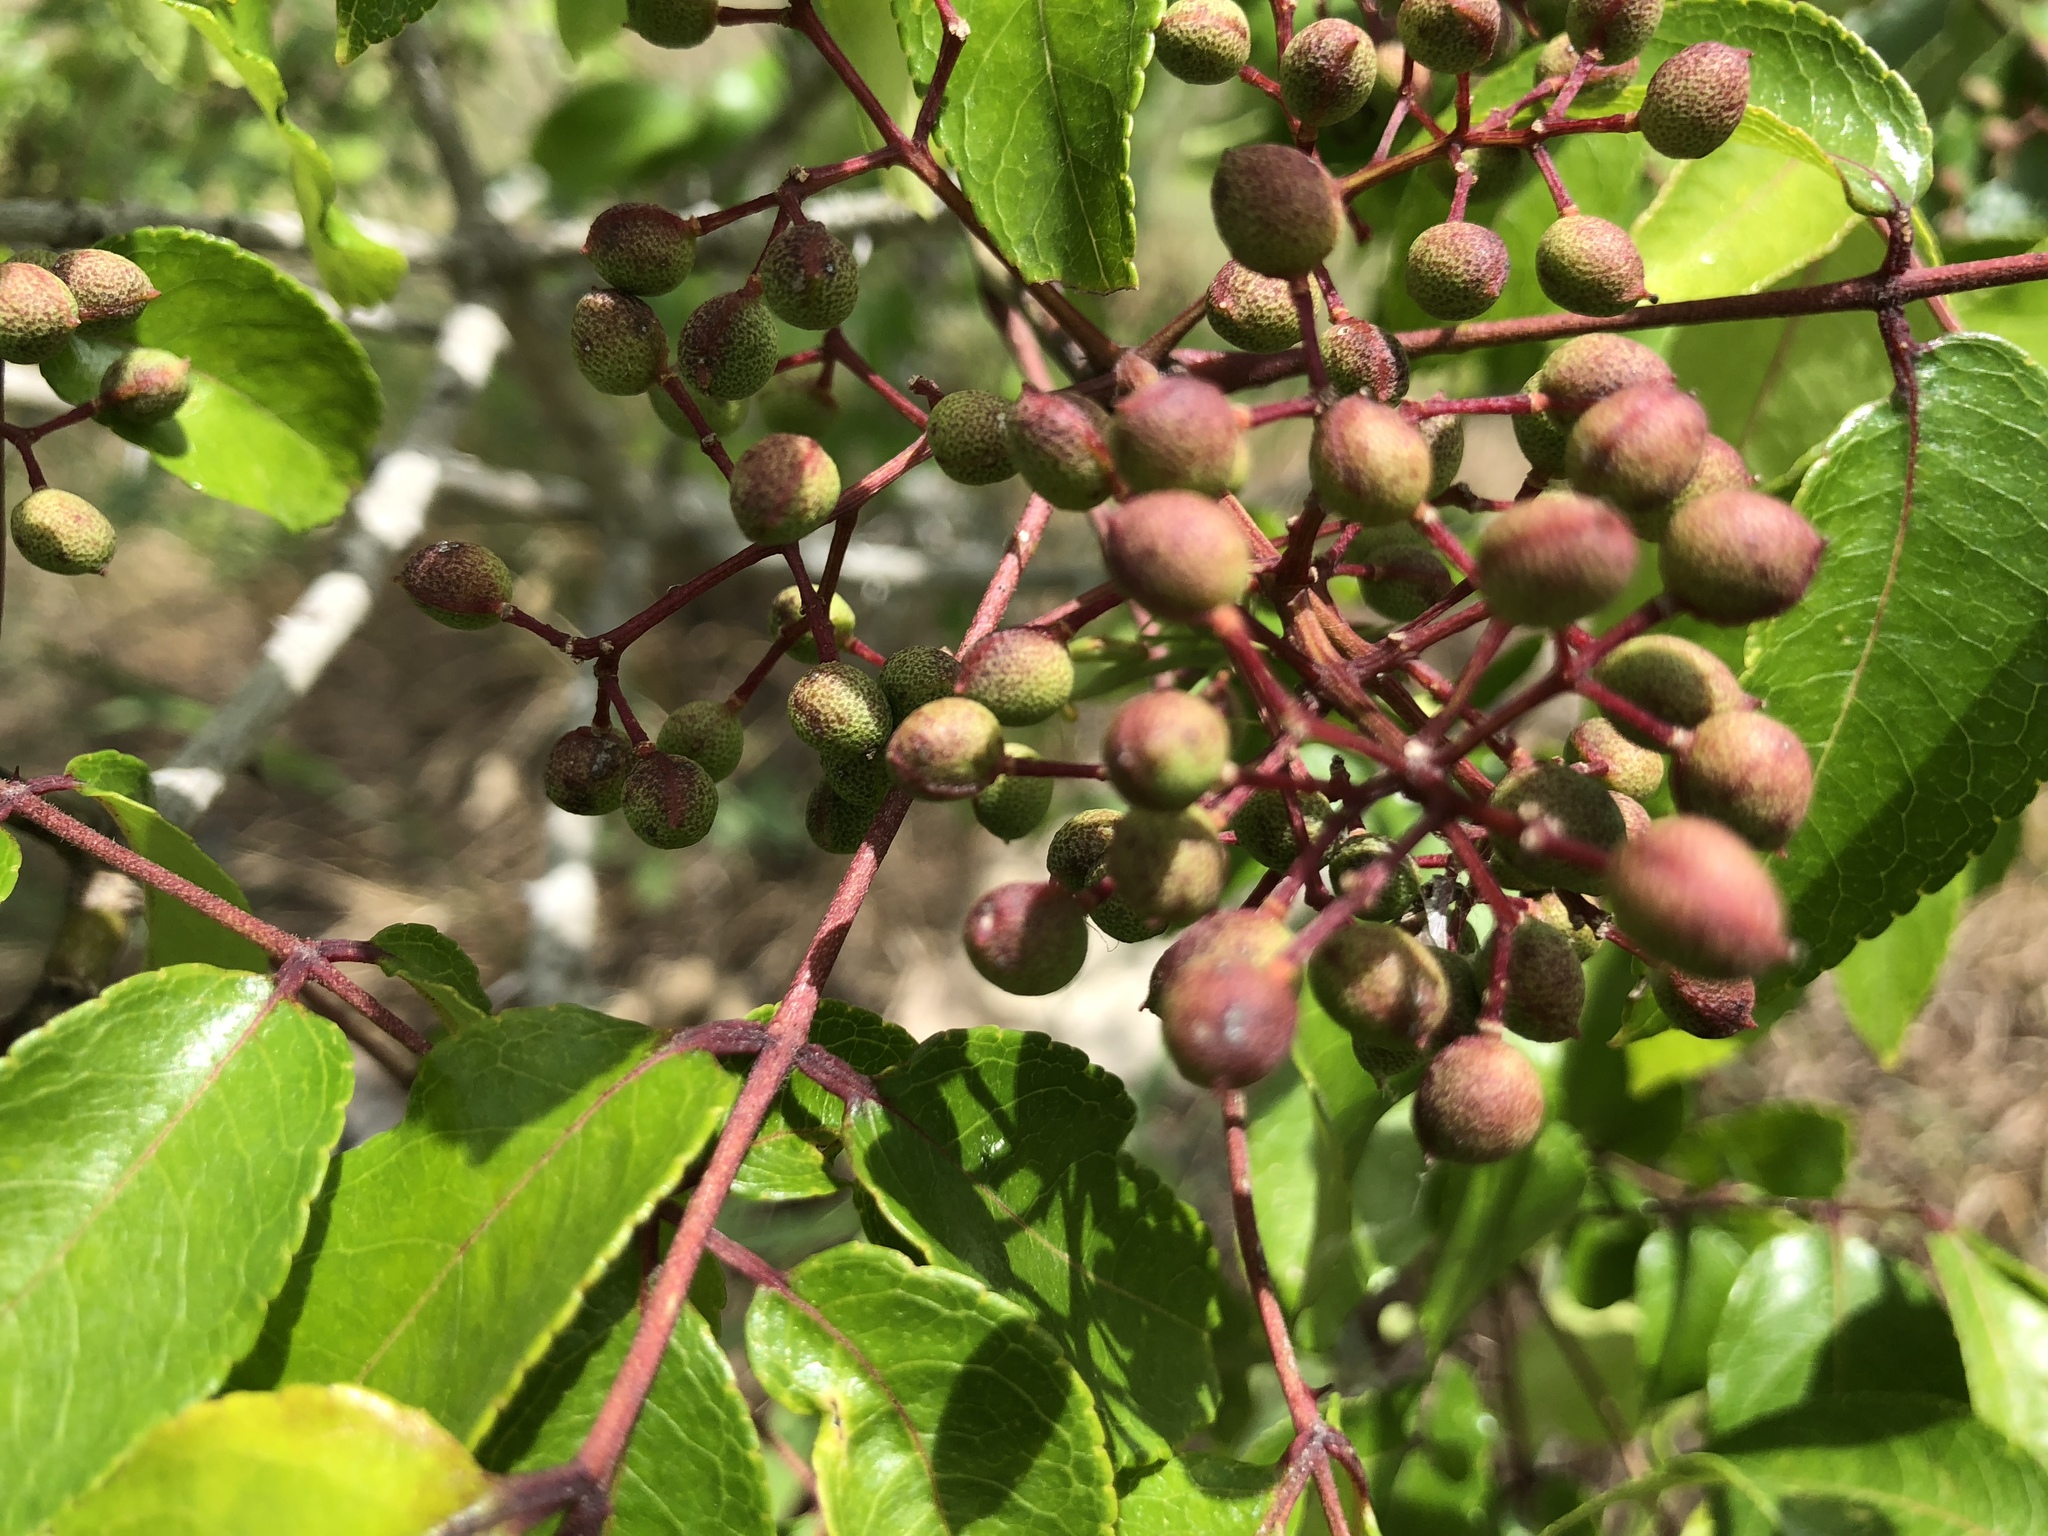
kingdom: Plantae
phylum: Tracheophyta
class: Magnoliopsida
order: Sapindales
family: Rutaceae
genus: Zanthoxylum
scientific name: Zanthoxylum clava-herculis
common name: Hercules'-club
